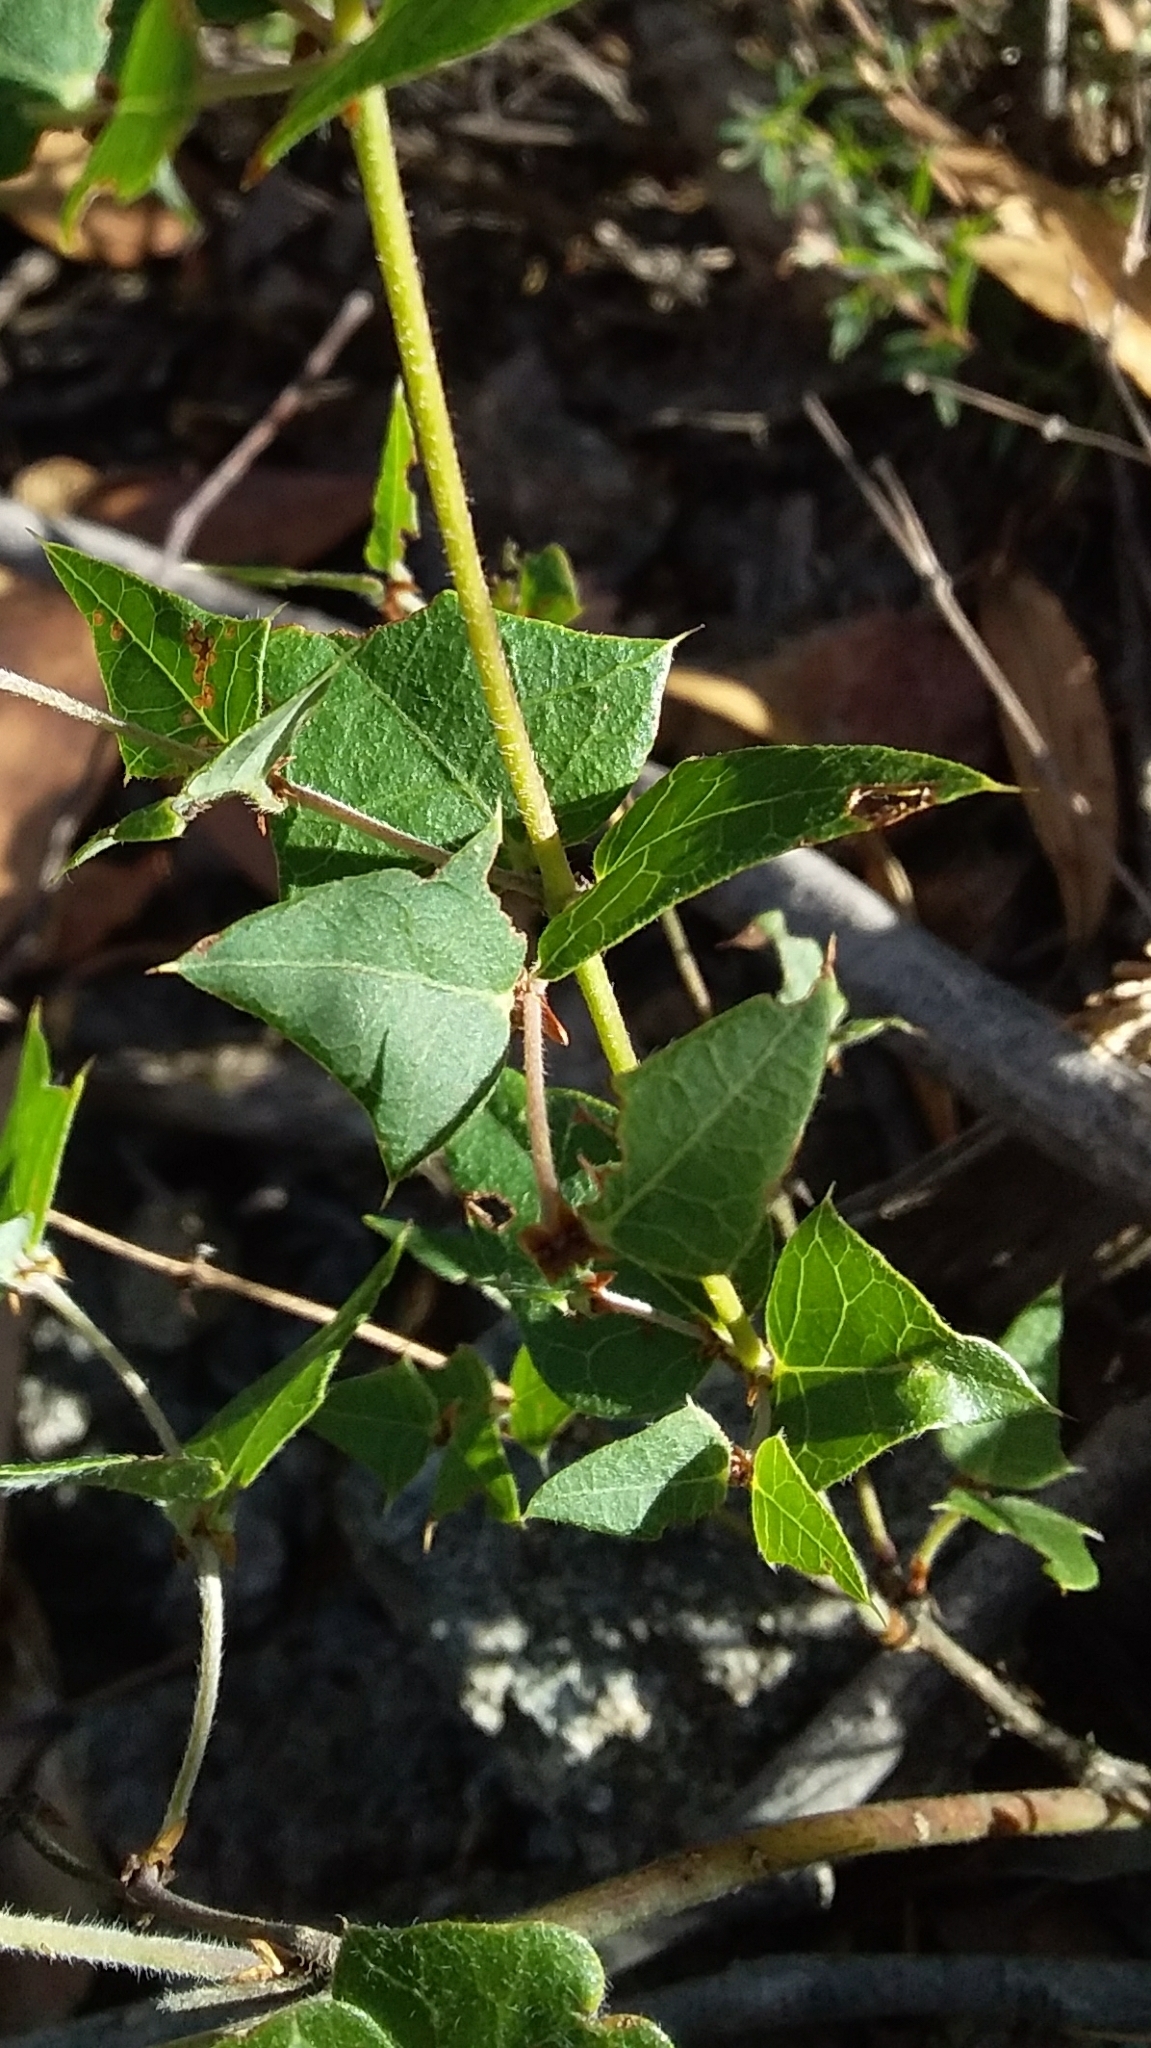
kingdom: Plantae
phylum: Tracheophyta
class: Magnoliopsida
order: Fabales
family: Fabaceae
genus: Platylobium
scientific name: Platylobium obtusangulum
